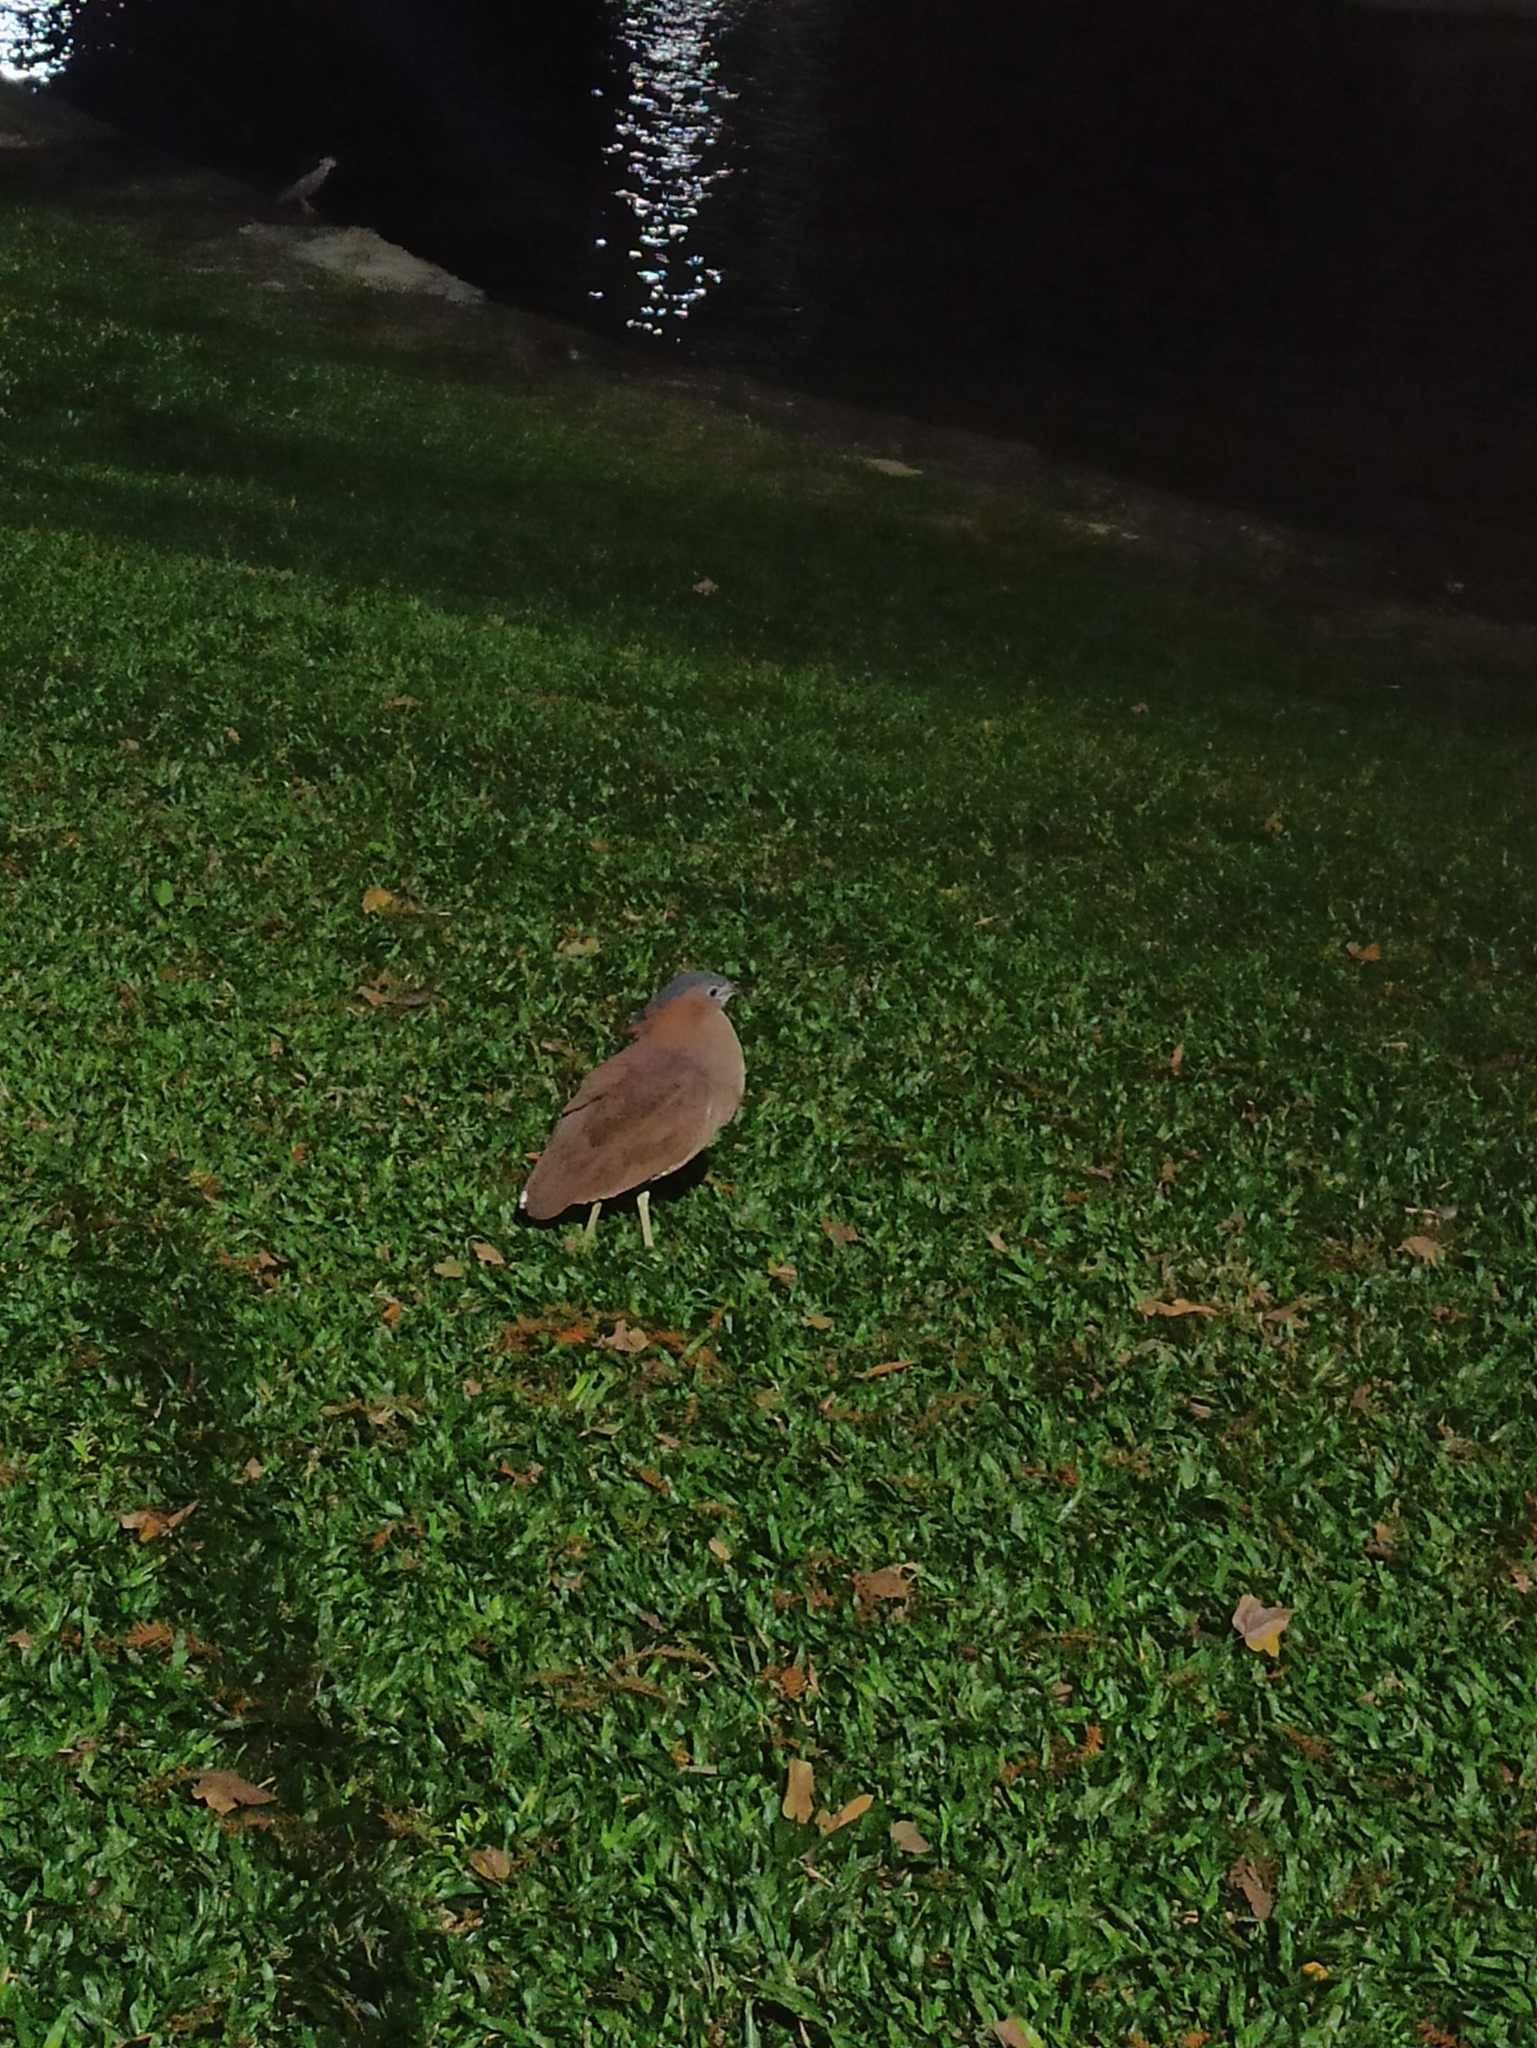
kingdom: Animalia
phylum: Chordata
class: Aves
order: Pelecaniformes
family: Ardeidae
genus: Gorsachius
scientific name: Gorsachius melanolophus
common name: Malayan night heron
